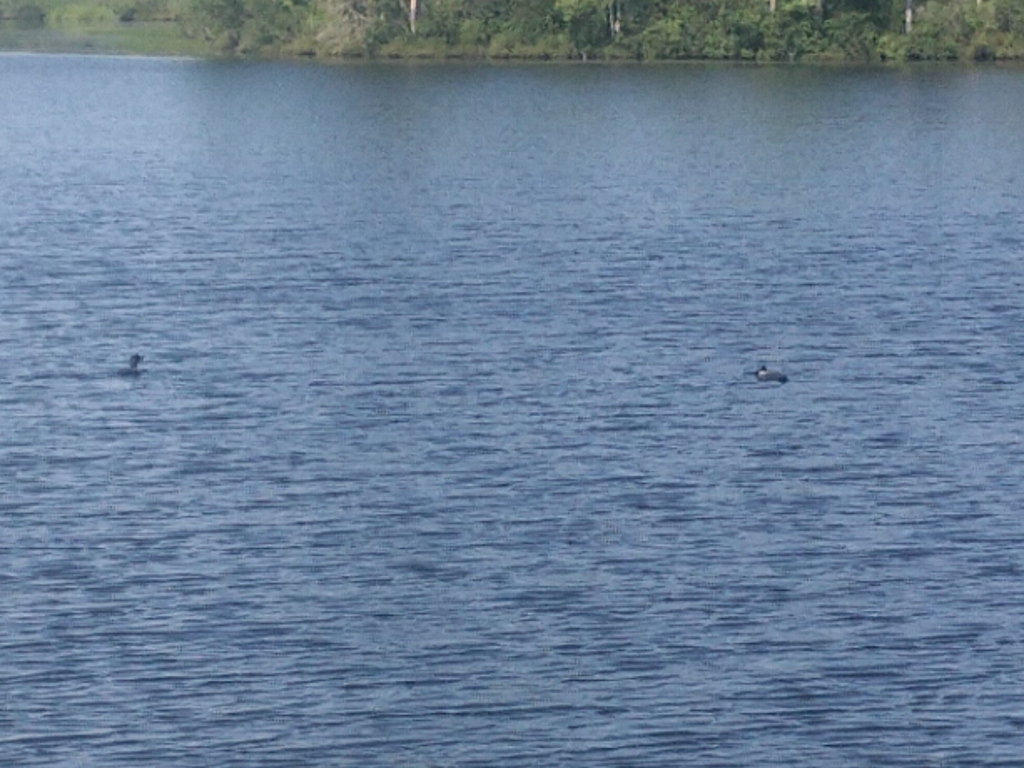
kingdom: Animalia
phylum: Chordata
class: Aves
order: Gaviiformes
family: Gaviidae
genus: Gavia
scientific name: Gavia immer
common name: Common loon
